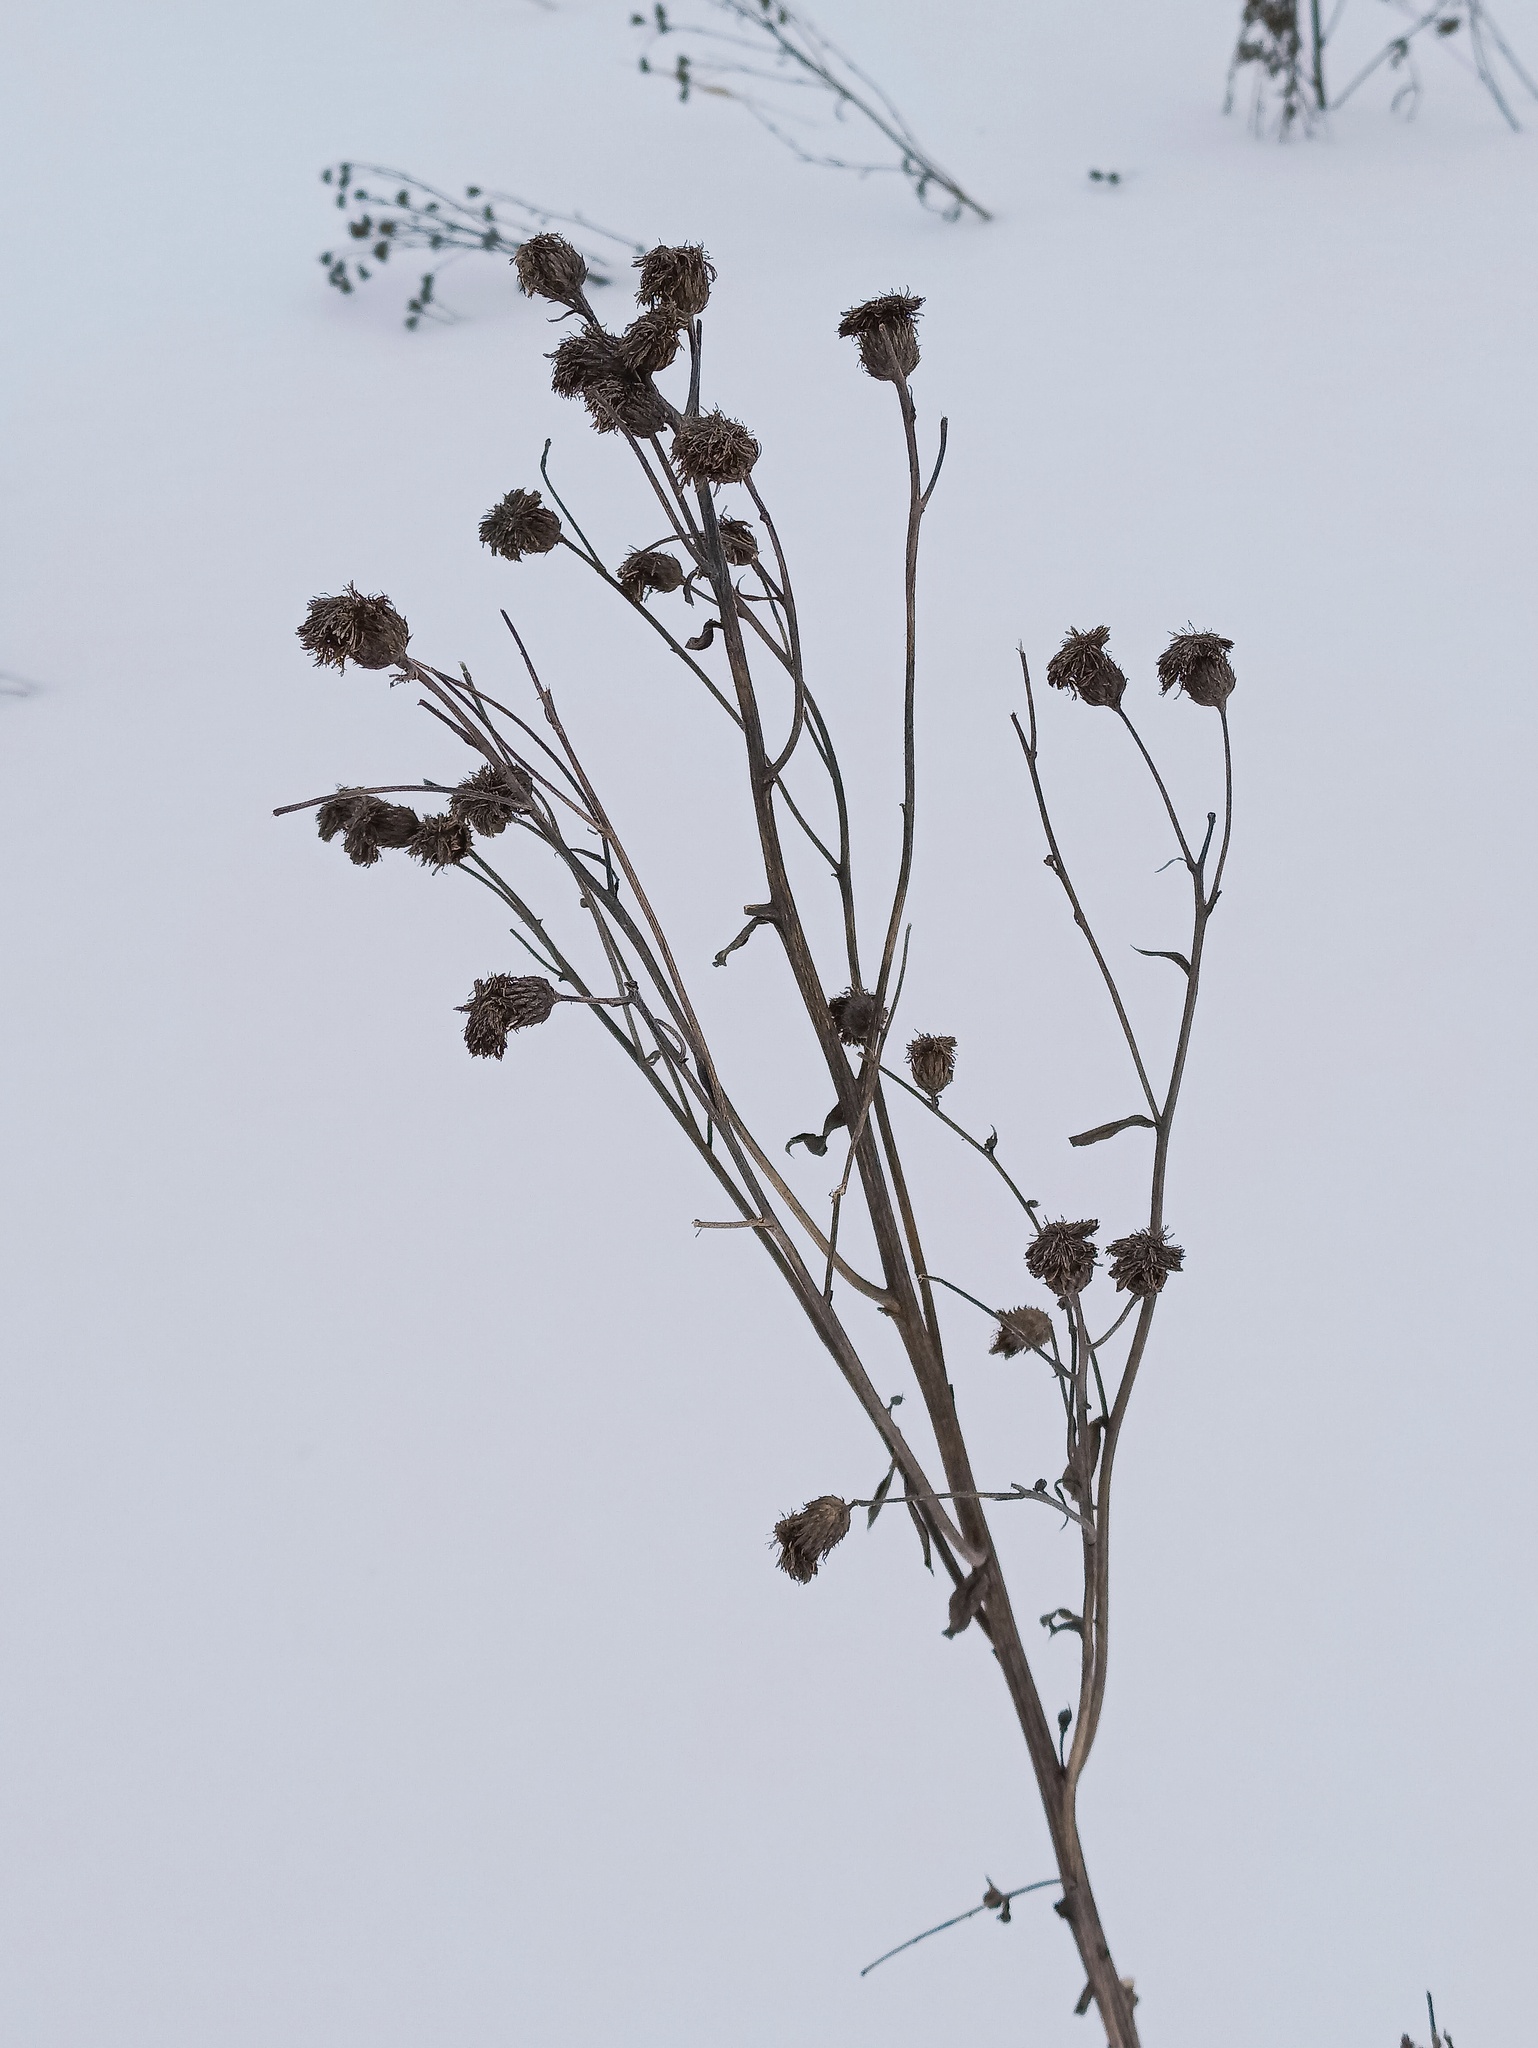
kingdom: Plantae
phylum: Tracheophyta
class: Magnoliopsida
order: Asterales
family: Asteraceae
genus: Cirsium
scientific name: Cirsium arvense
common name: Creeping thistle
